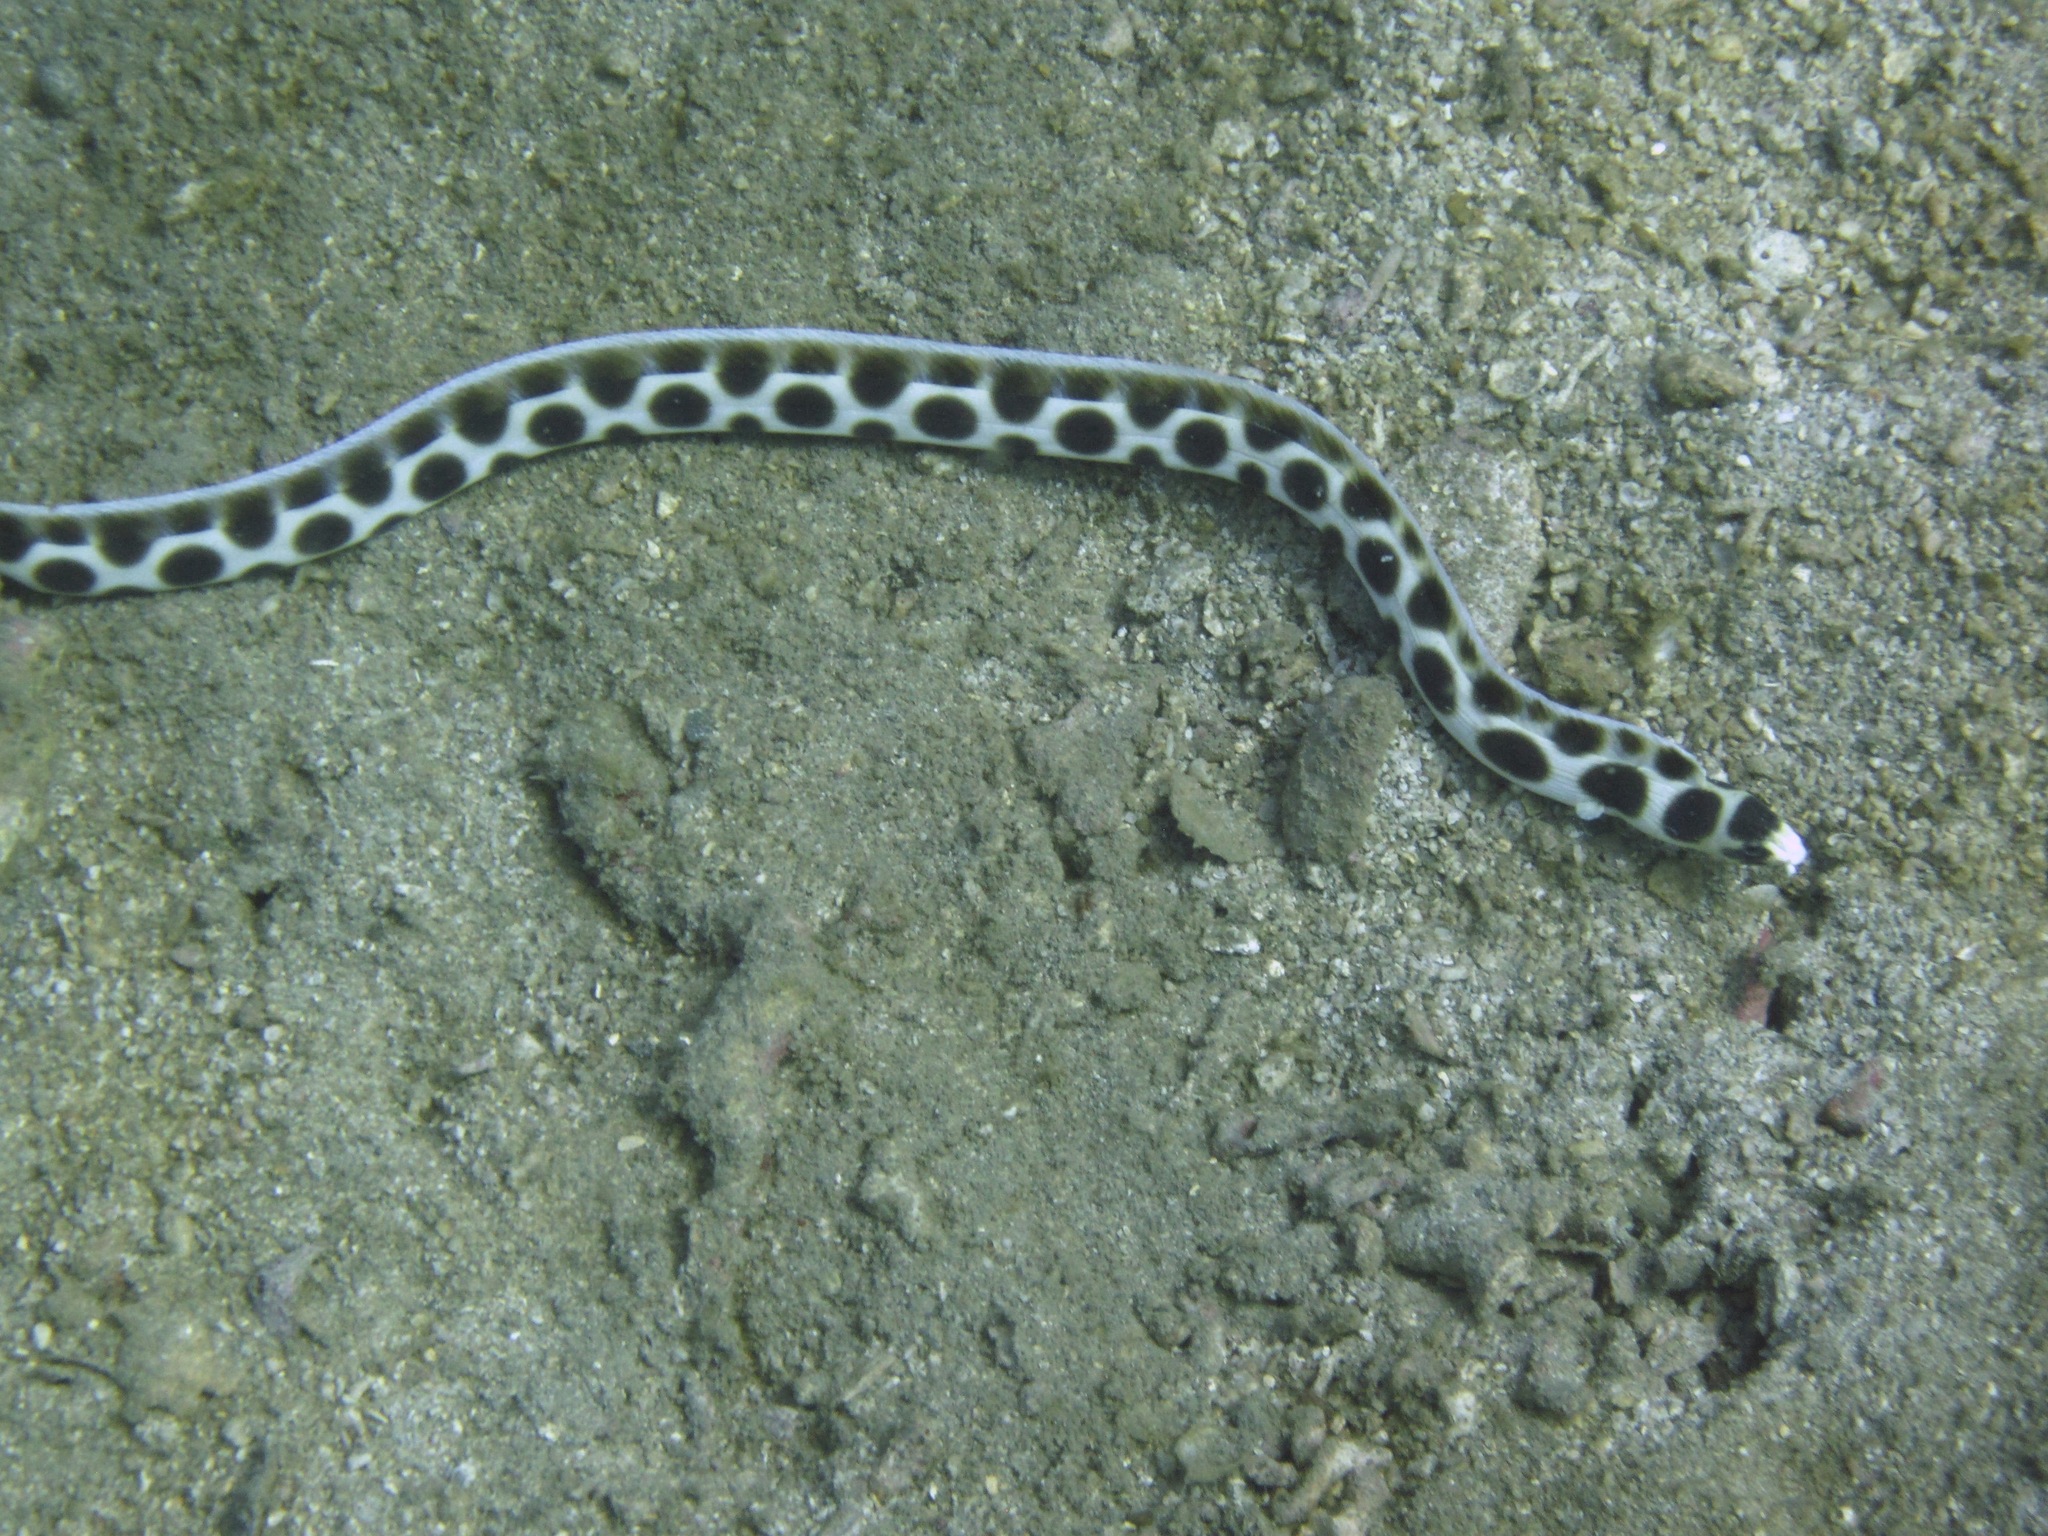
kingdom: Animalia
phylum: Chordata
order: Anguilliformes
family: Ophichthidae
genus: Myrichthys
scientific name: Myrichthys maculosus
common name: Spotted snake eel
